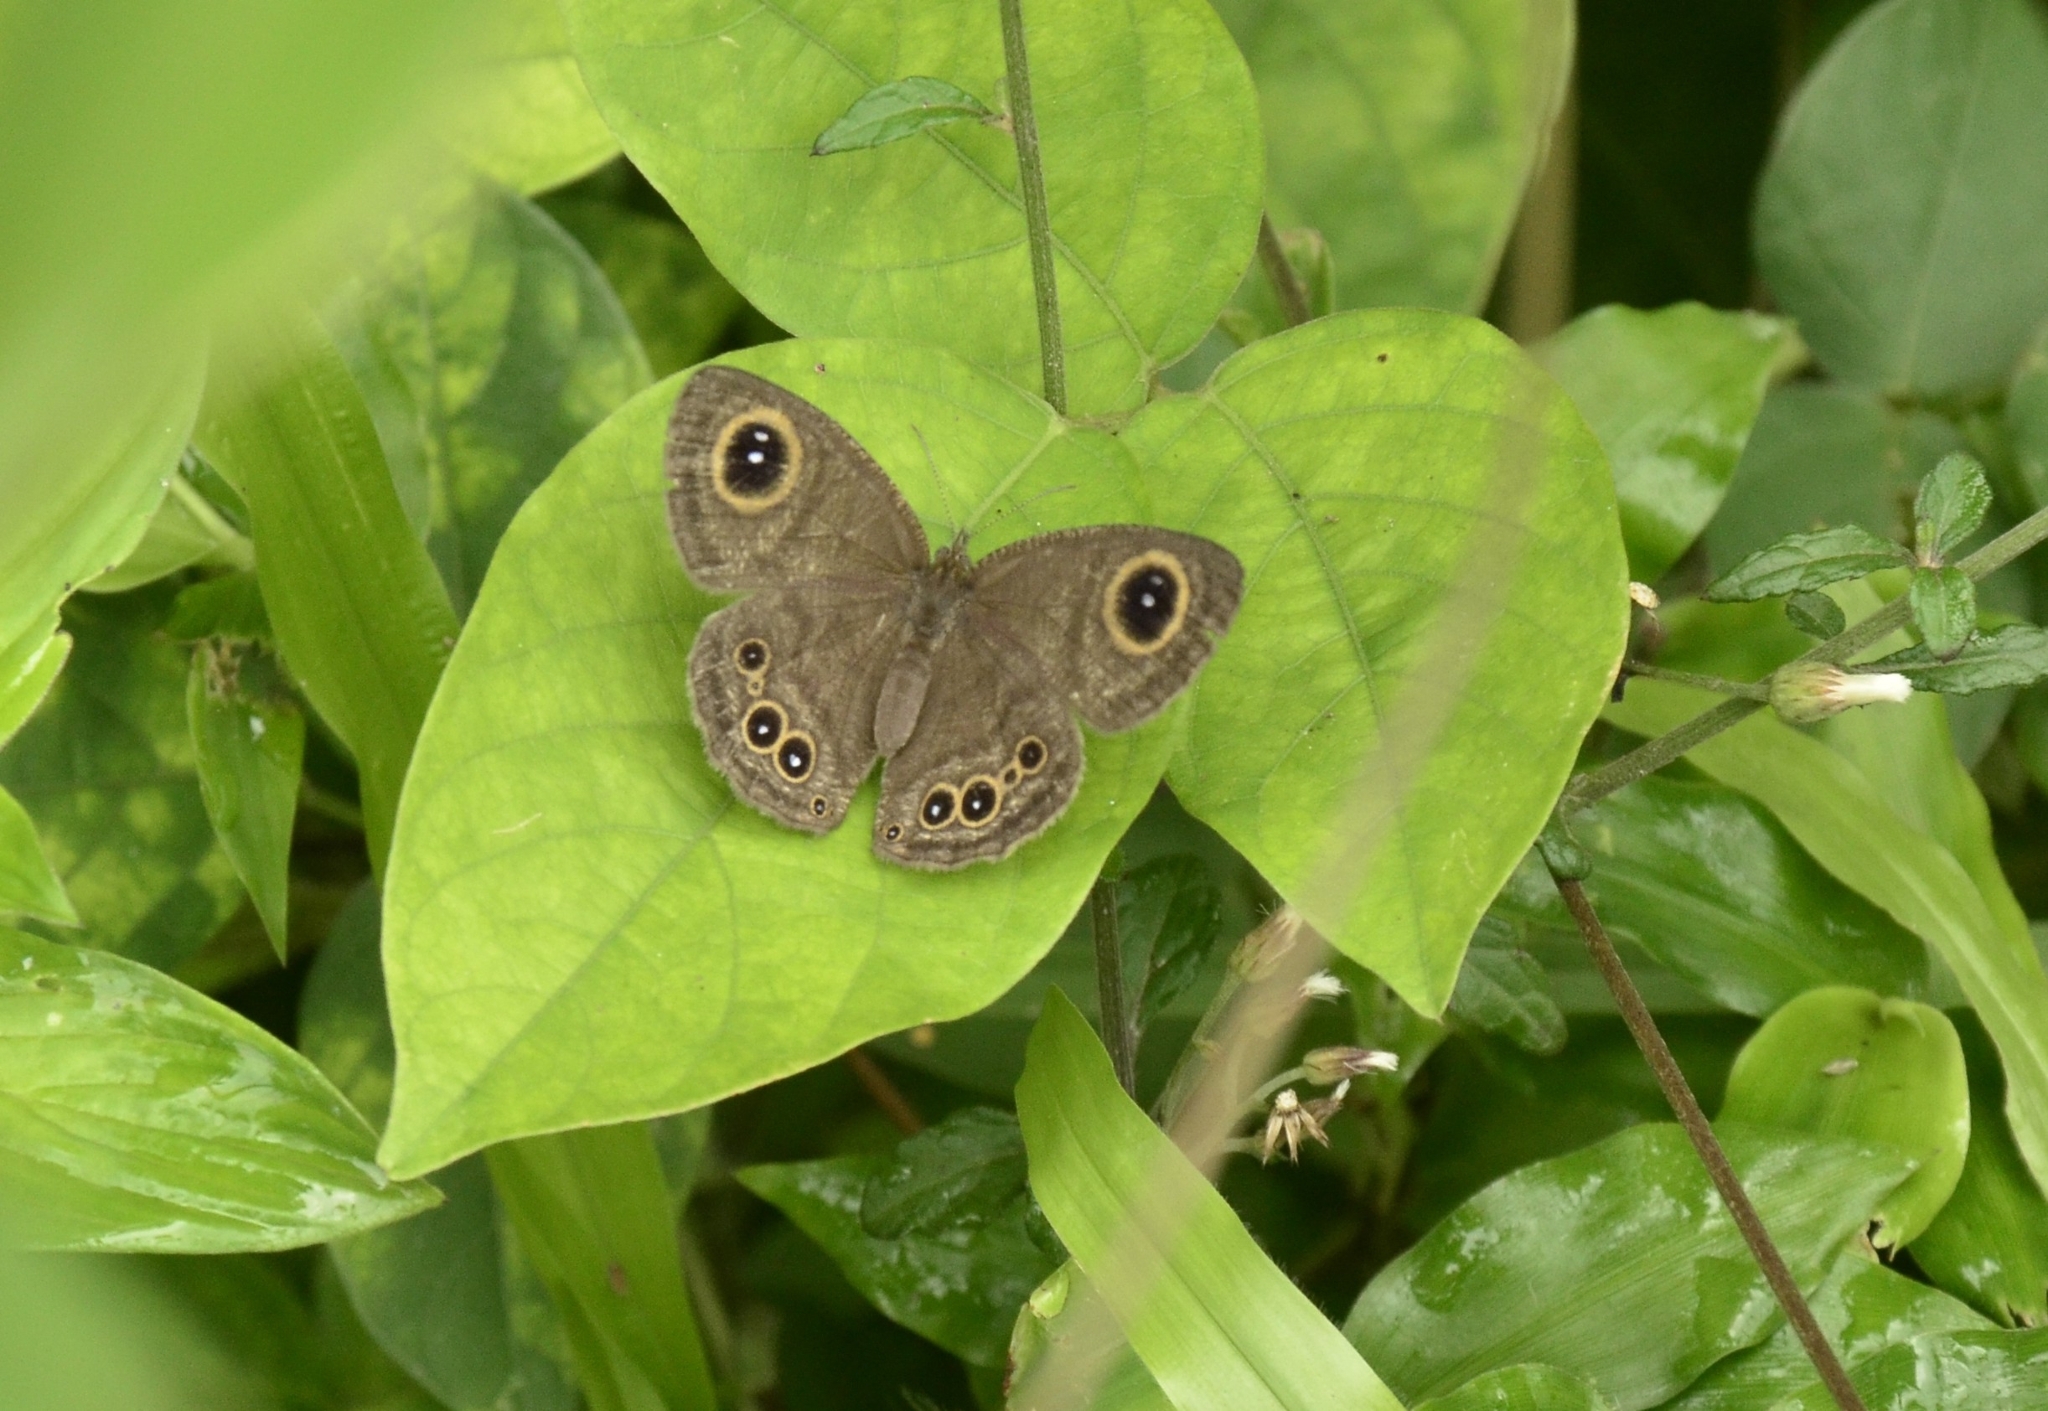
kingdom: Animalia
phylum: Arthropoda
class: Insecta
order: Lepidoptera
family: Nymphalidae
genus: Ypthima
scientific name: Ypthima baldus
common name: Common five-ring
